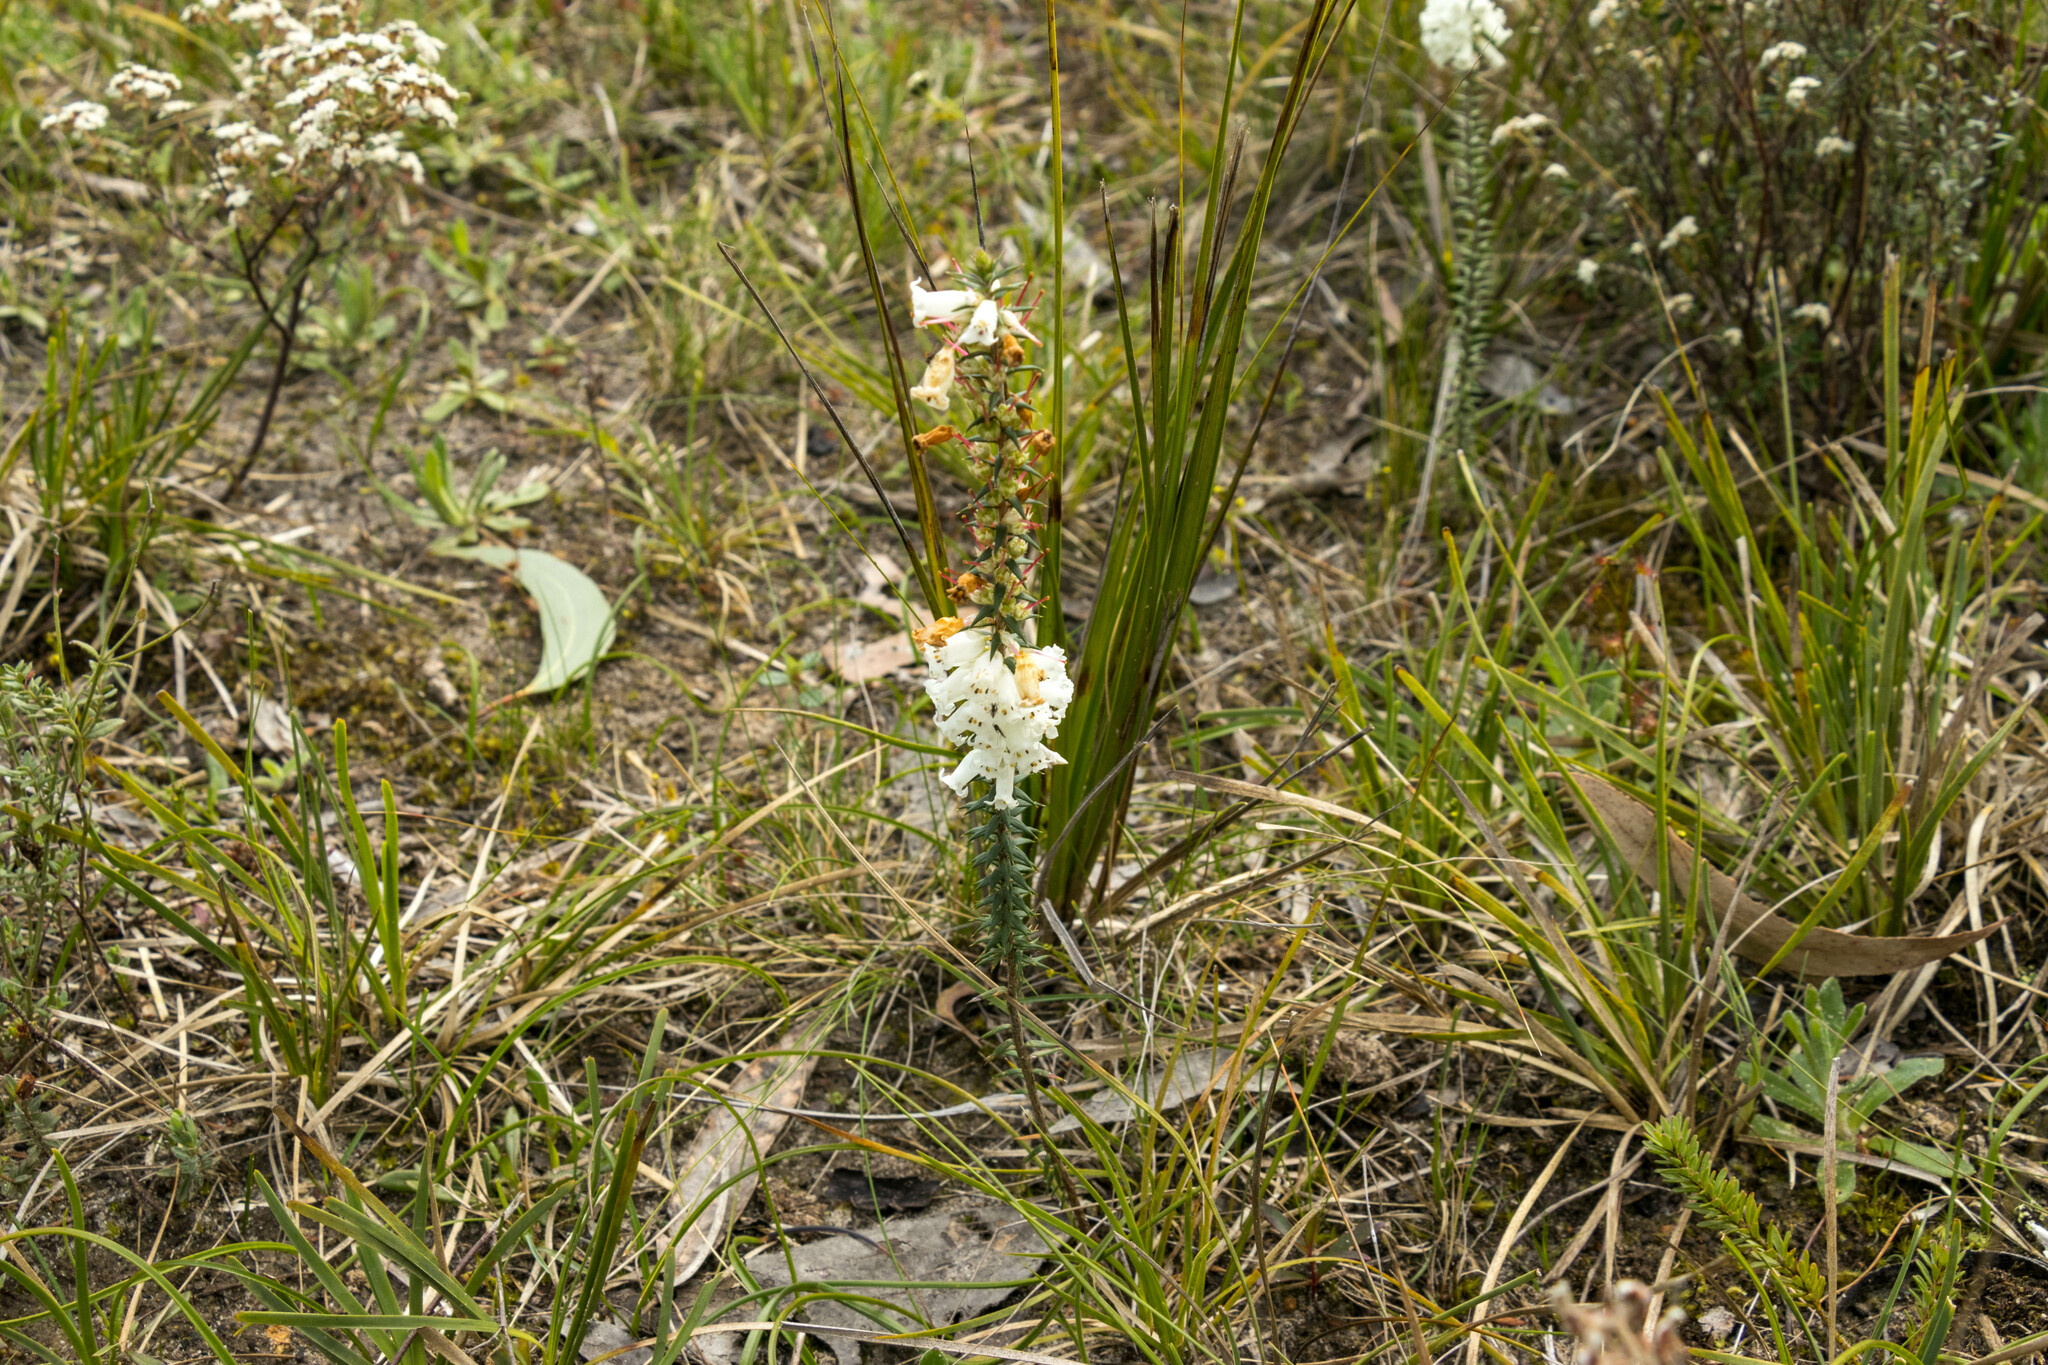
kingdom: Plantae
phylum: Tracheophyta
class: Magnoliopsida
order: Ericales
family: Ericaceae
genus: Epacris
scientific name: Epacris impressa
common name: Common-heath
